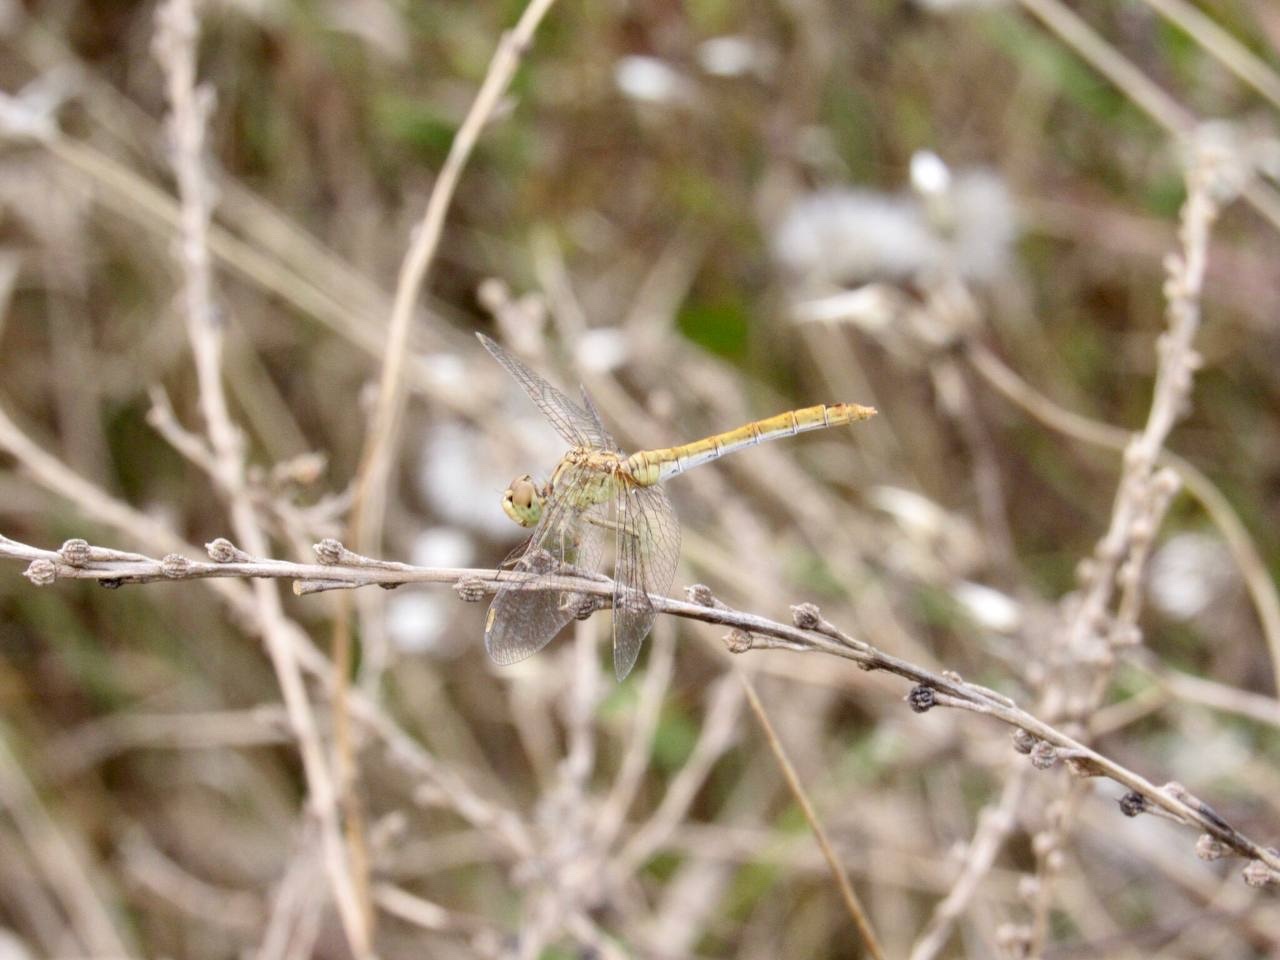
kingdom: Animalia
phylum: Arthropoda
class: Insecta
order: Odonata
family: Libellulidae
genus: Sympetrum
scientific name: Sympetrum meridionale
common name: Southern darter
